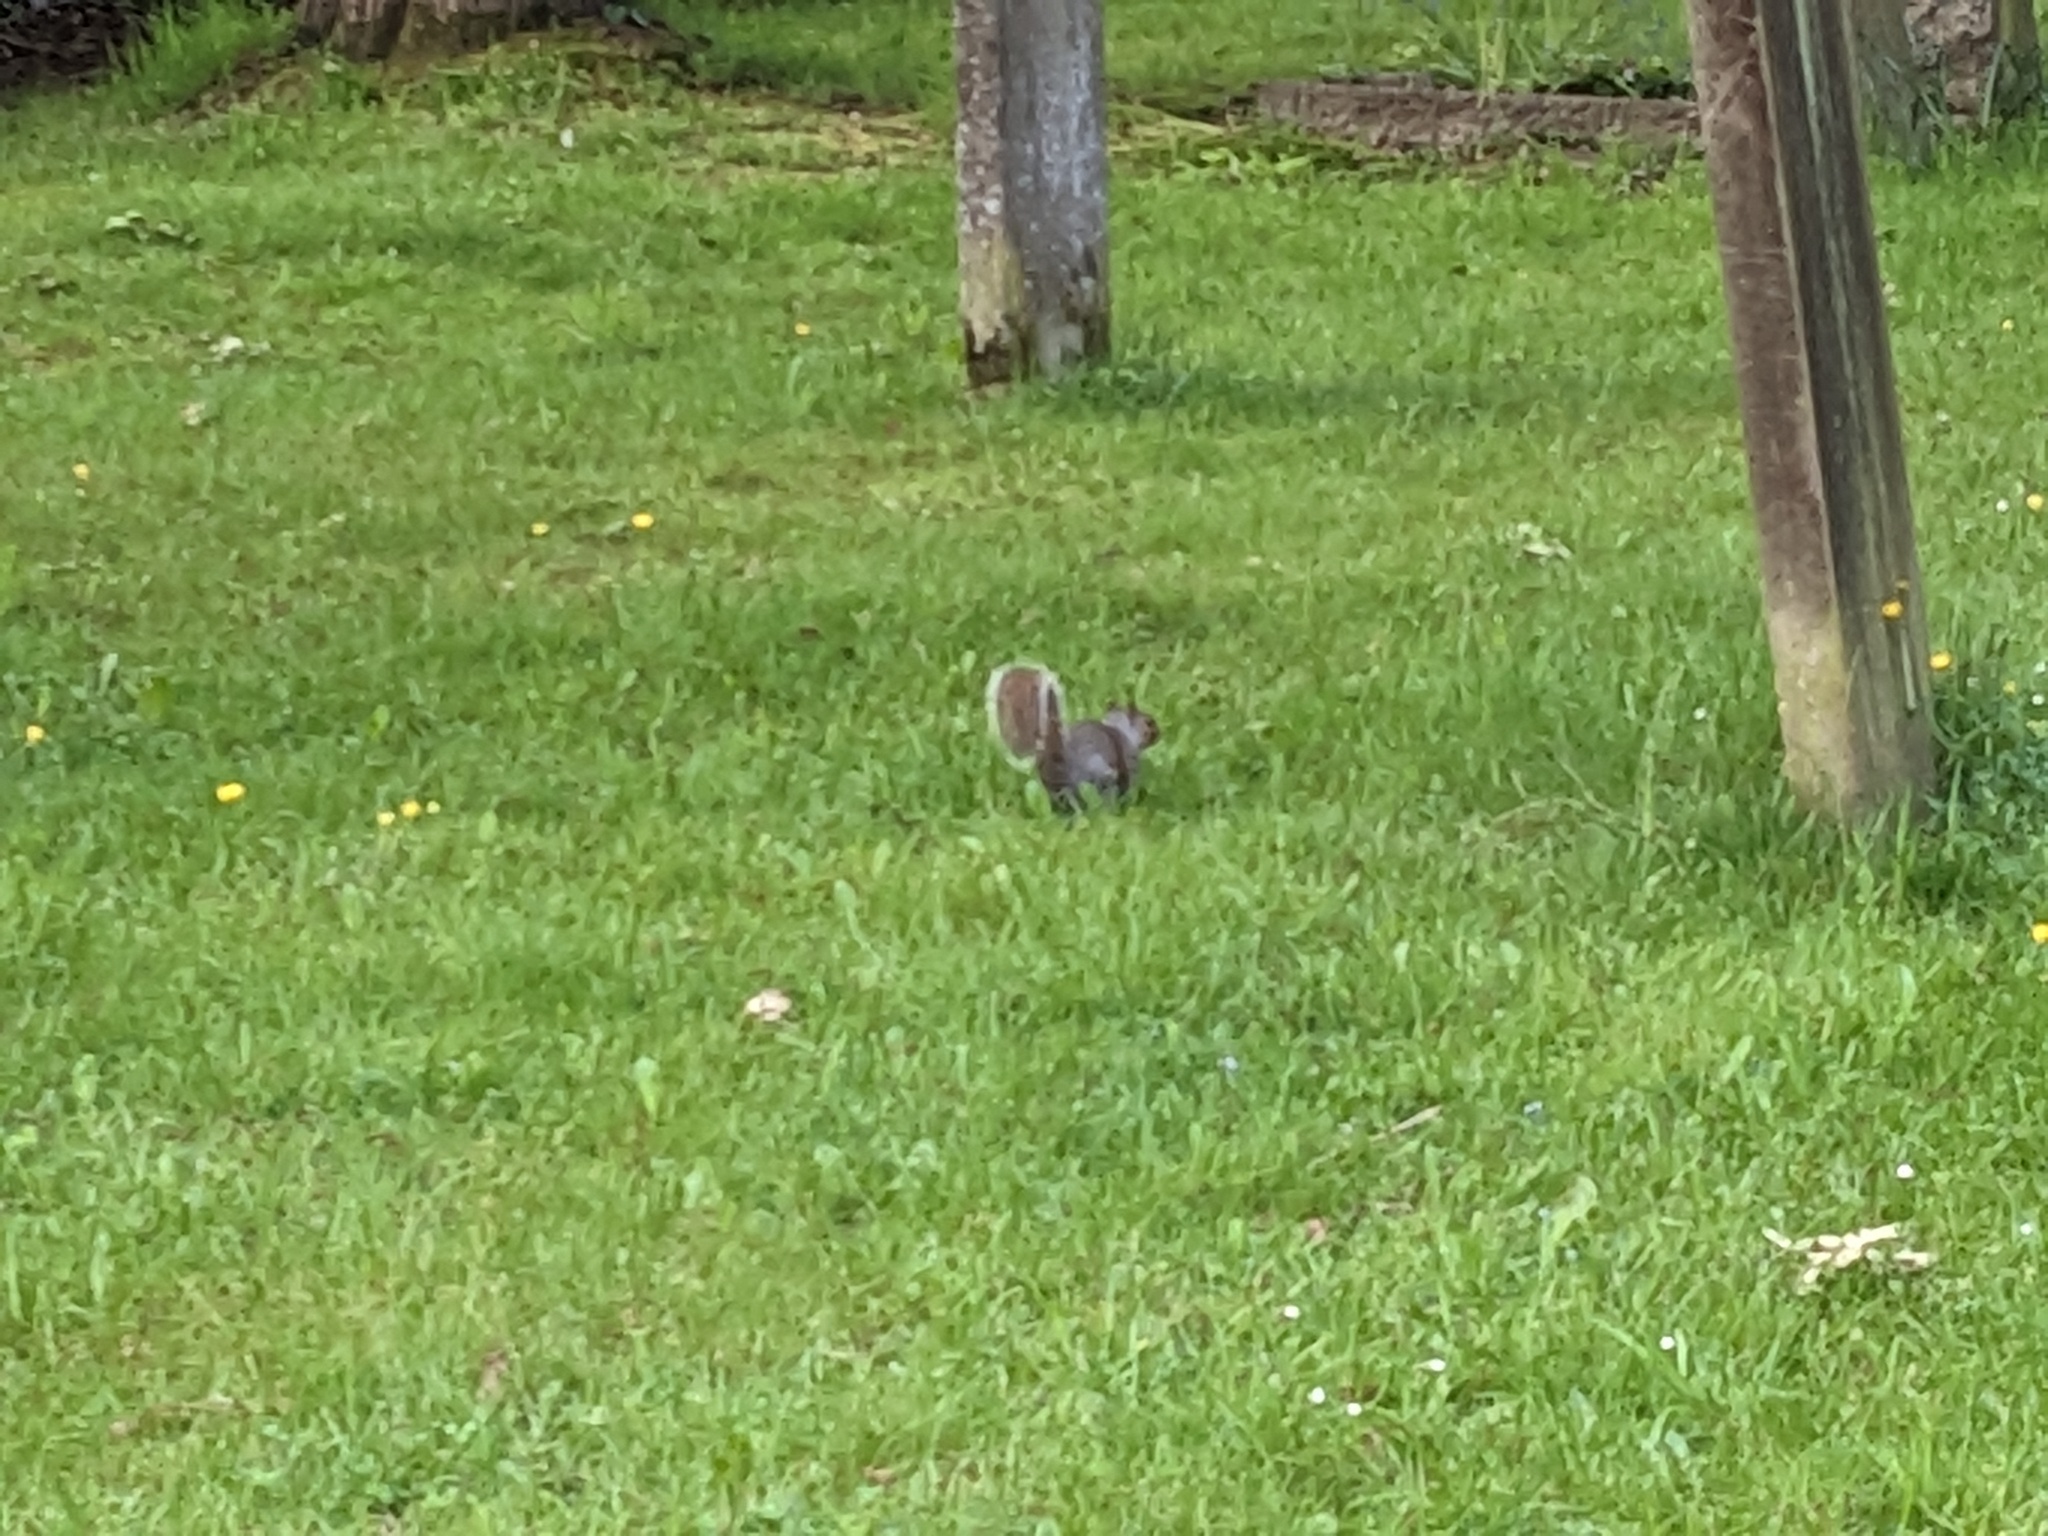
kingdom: Animalia
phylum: Chordata
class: Mammalia
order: Rodentia
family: Sciuridae
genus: Sciurus
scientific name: Sciurus carolinensis
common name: Eastern gray squirrel
